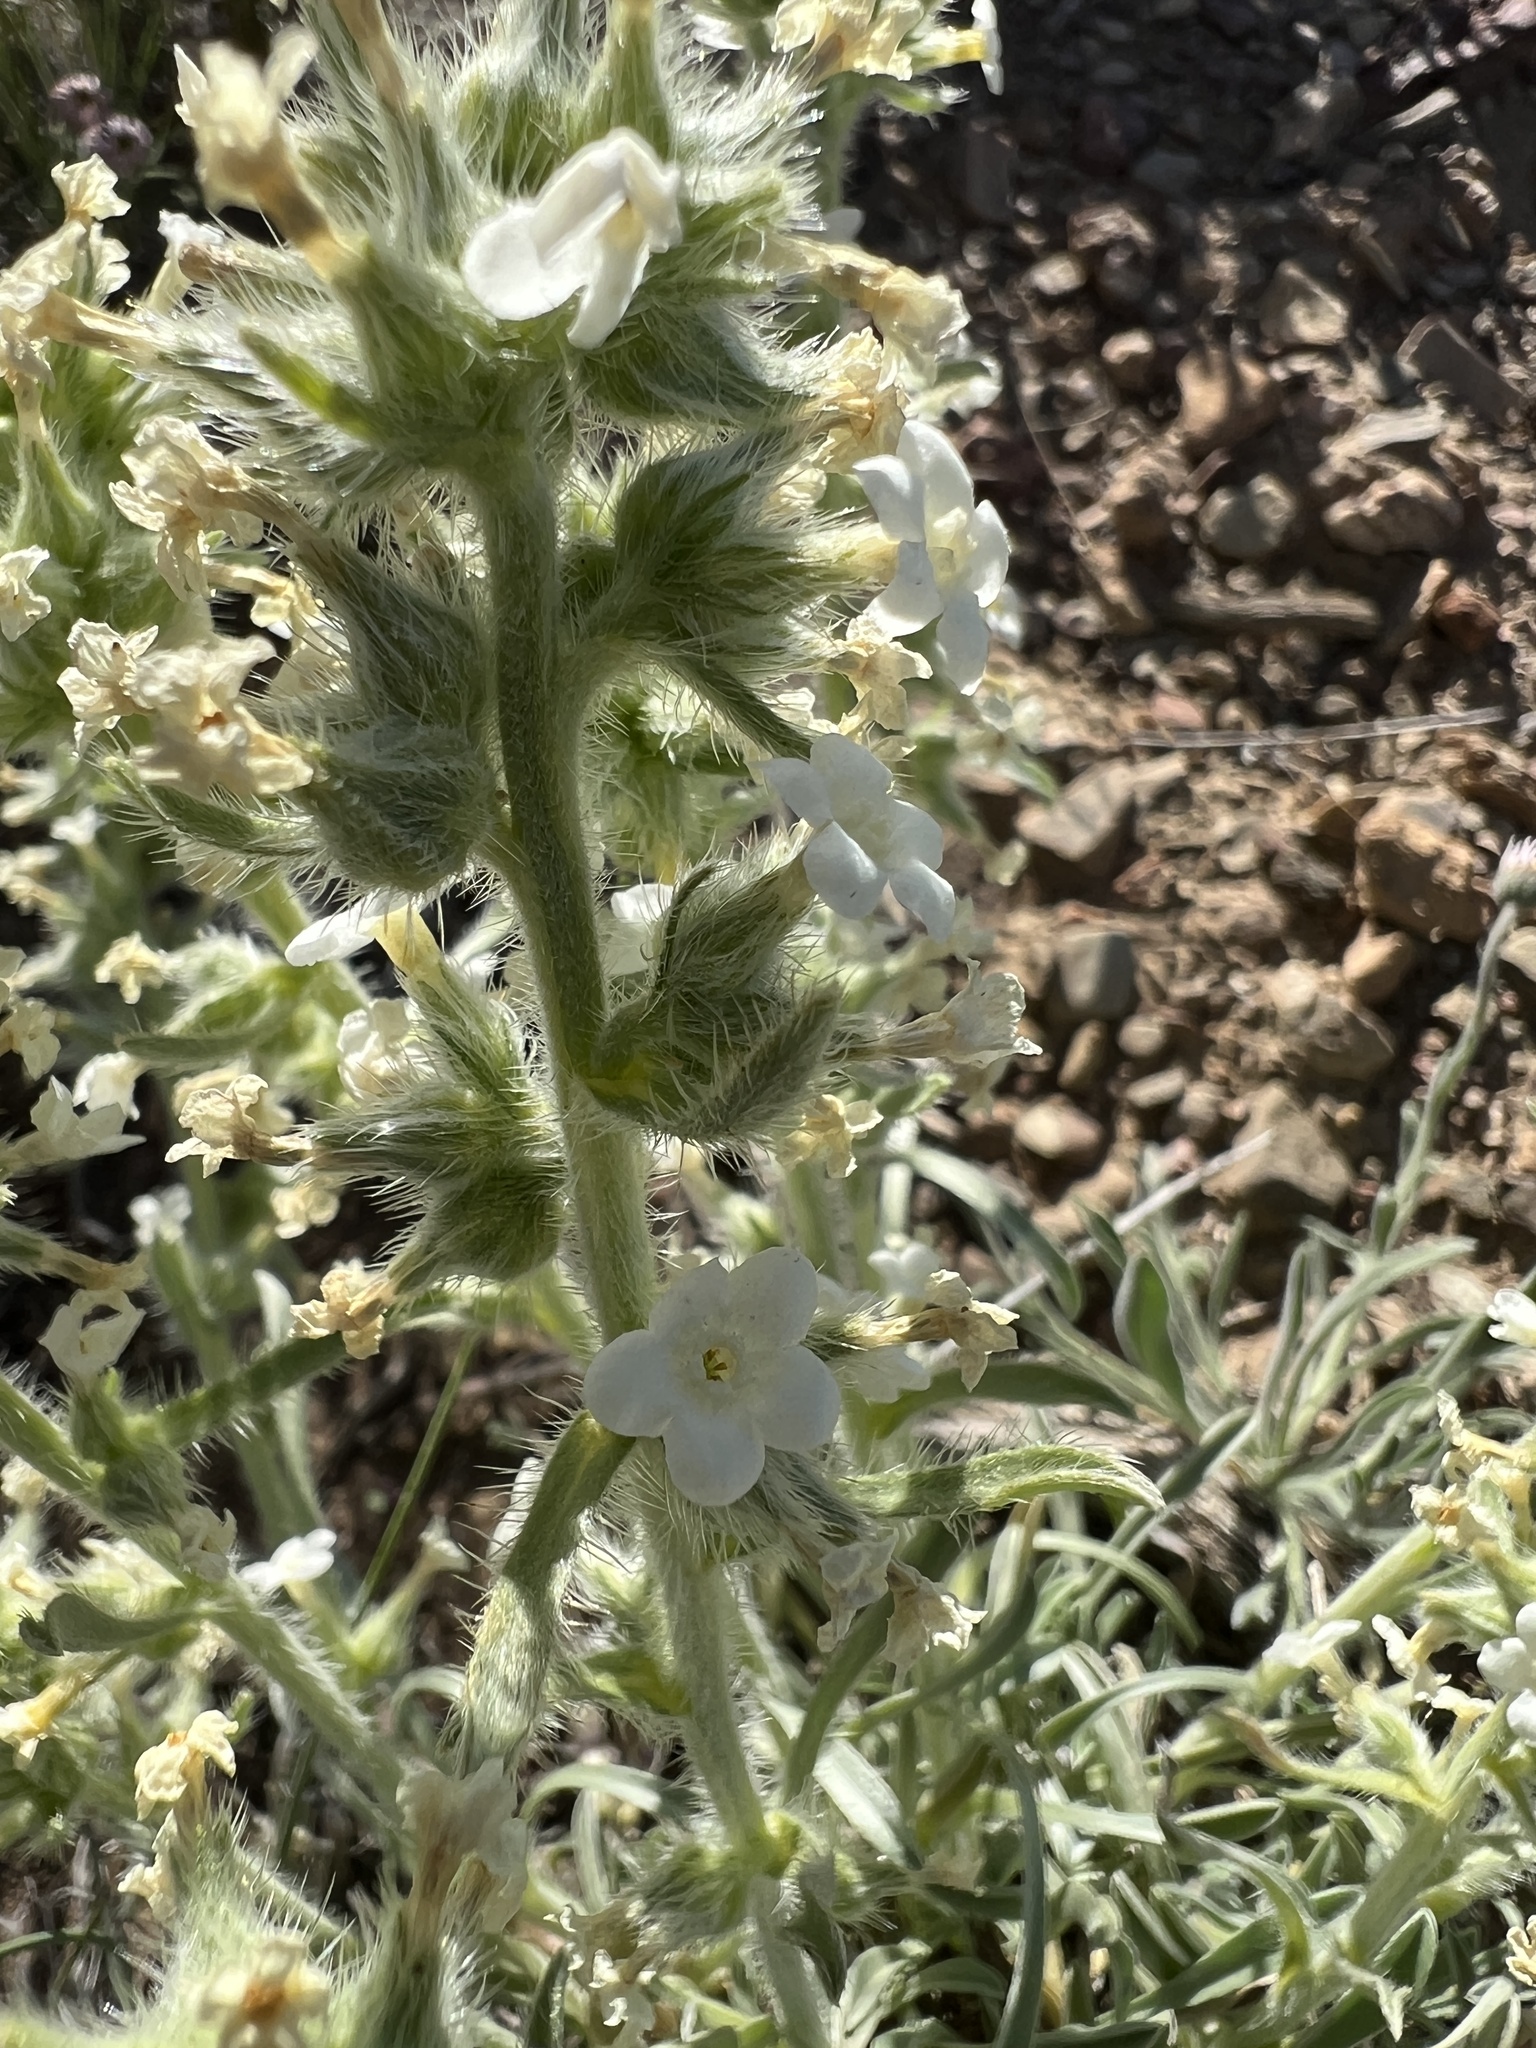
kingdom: Plantae
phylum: Tracheophyta
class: Magnoliopsida
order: Boraginales
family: Boraginaceae
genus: Oreocarya
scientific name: Oreocarya flavoculata
